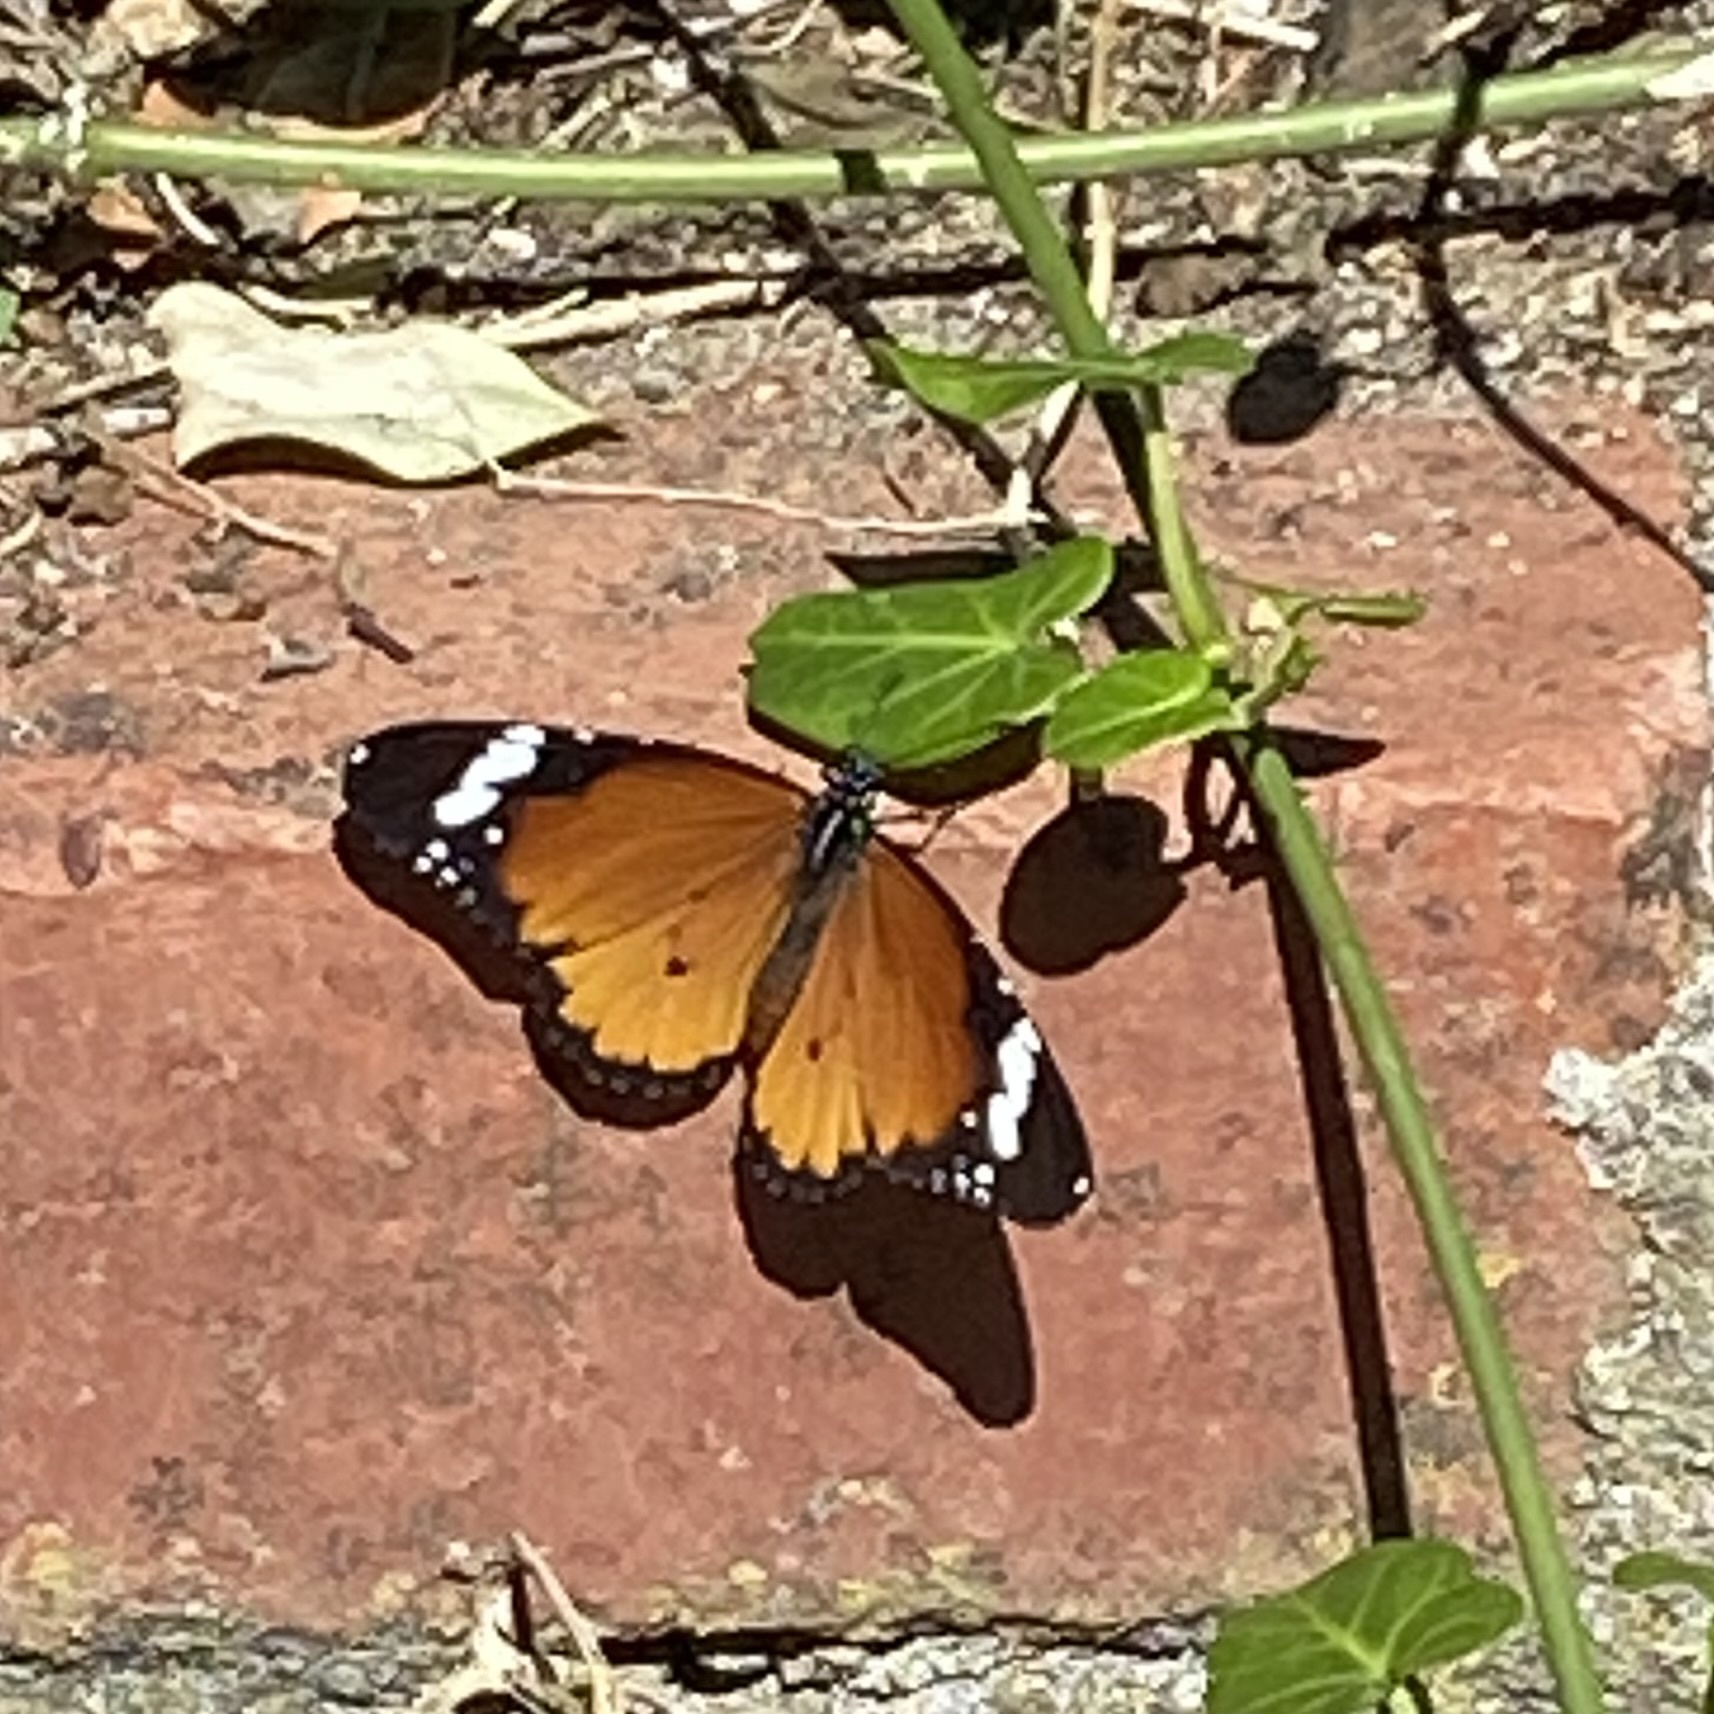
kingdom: Animalia
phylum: Arthropoda
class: Insecta
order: Lepidoptera
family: Nymphalidae
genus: Danaus
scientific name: Danaus chrysippus
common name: Plain tiger
